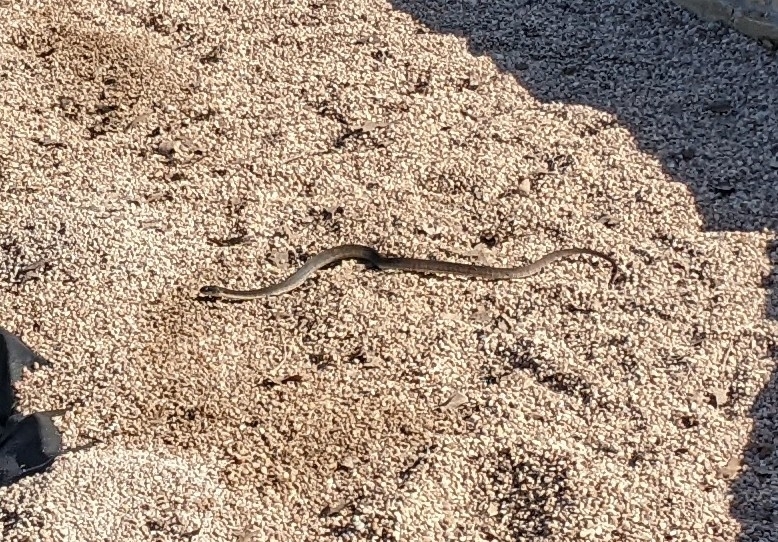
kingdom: Animalia
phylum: Chordata
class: Squamata
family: Colubridae
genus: Nerodia
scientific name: Nerodia erythrogaster
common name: Plainbelly water snake
